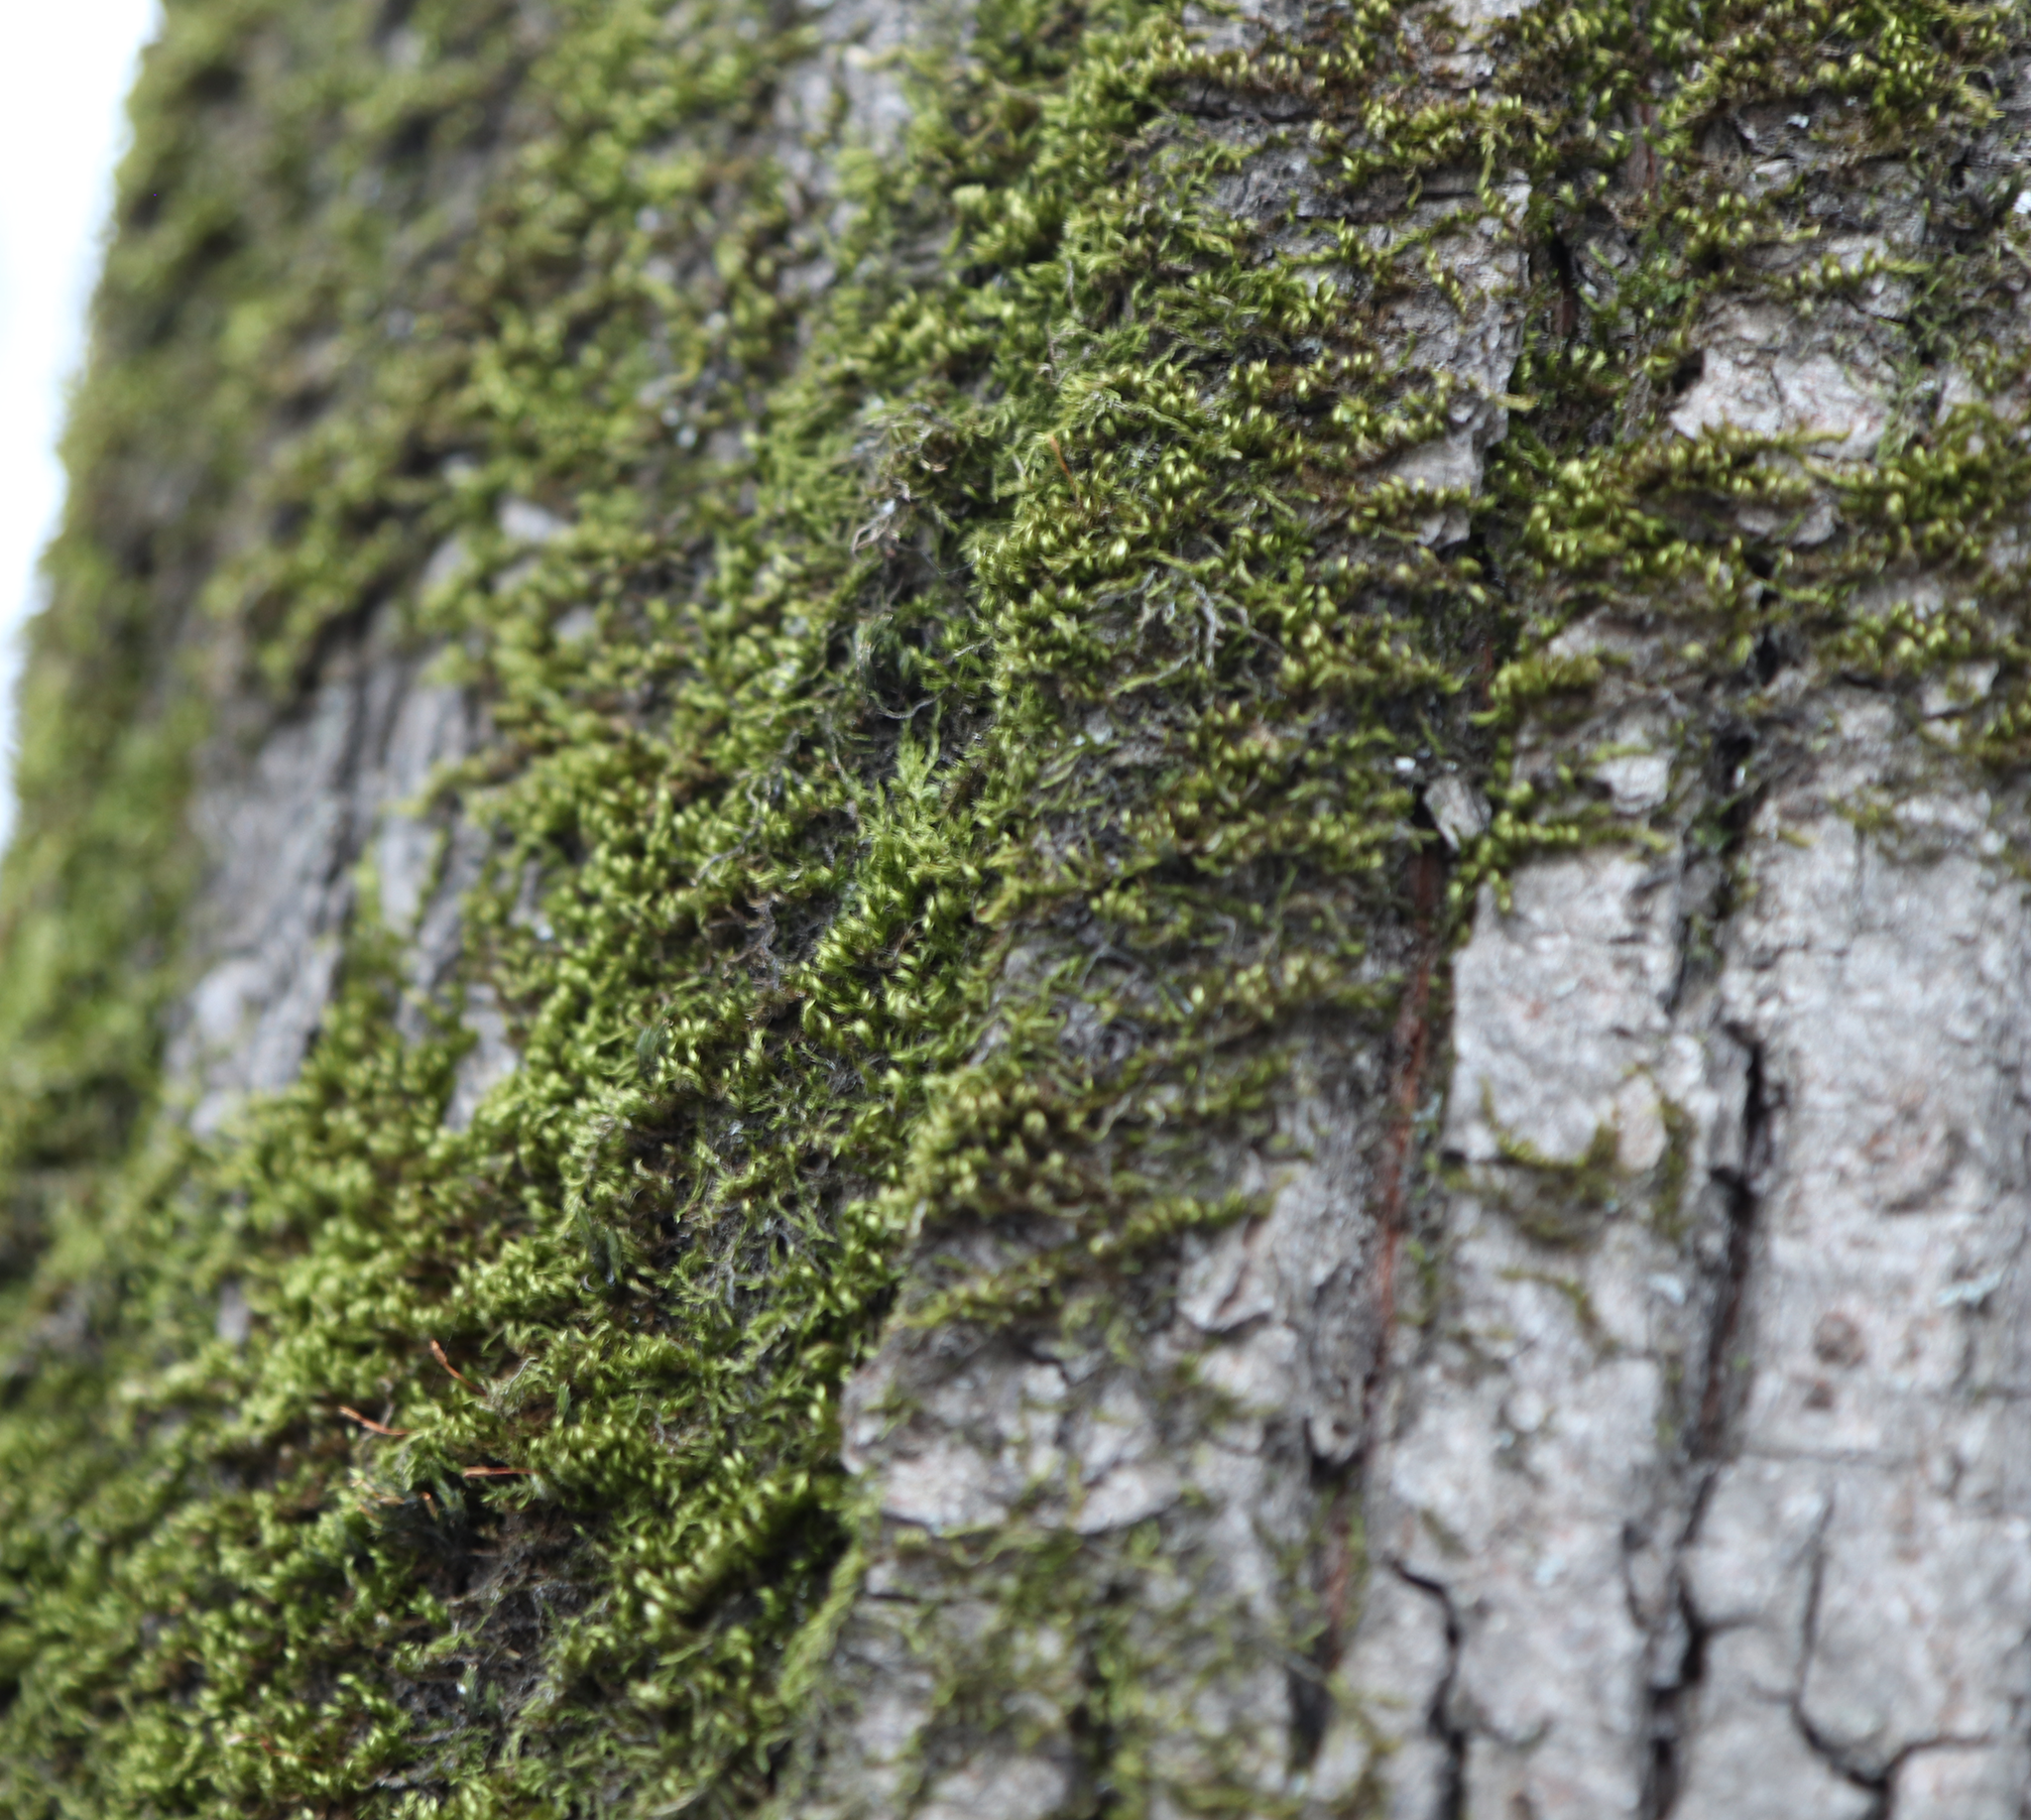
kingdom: Plantae
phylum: Bryophyta
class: Bryopsida
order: Hypnales
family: Pylaisiaceae
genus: Pylaisia
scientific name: Pylaisia polyantha
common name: Many-flowered leskea
